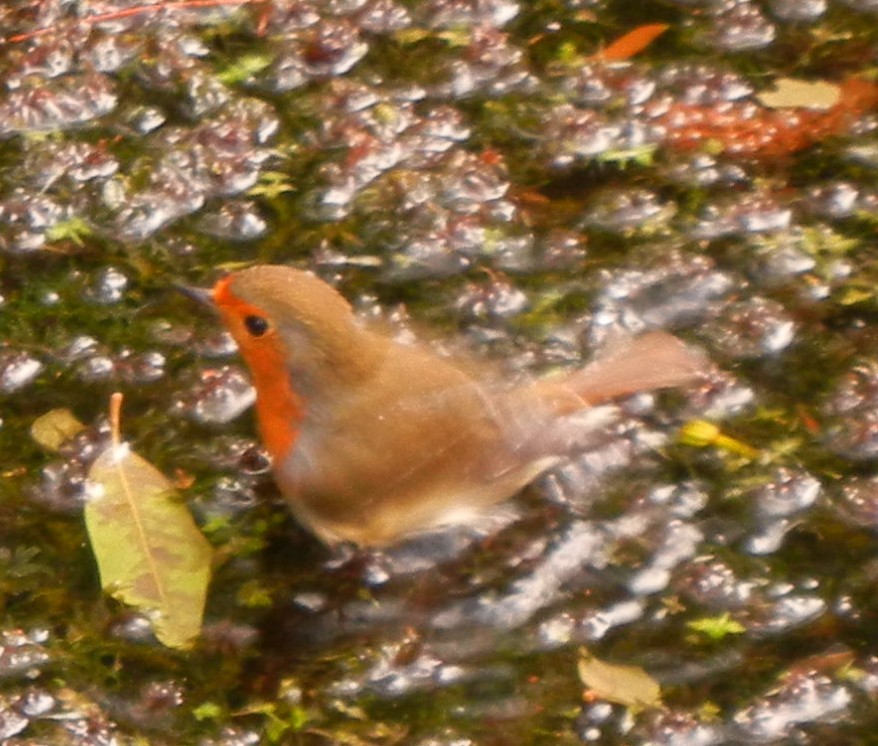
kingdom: Animalia
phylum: Chordata
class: Aves
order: Passeriformes
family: Muscicapidae
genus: Erithacus
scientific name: Erithacus rubecula
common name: European robin
